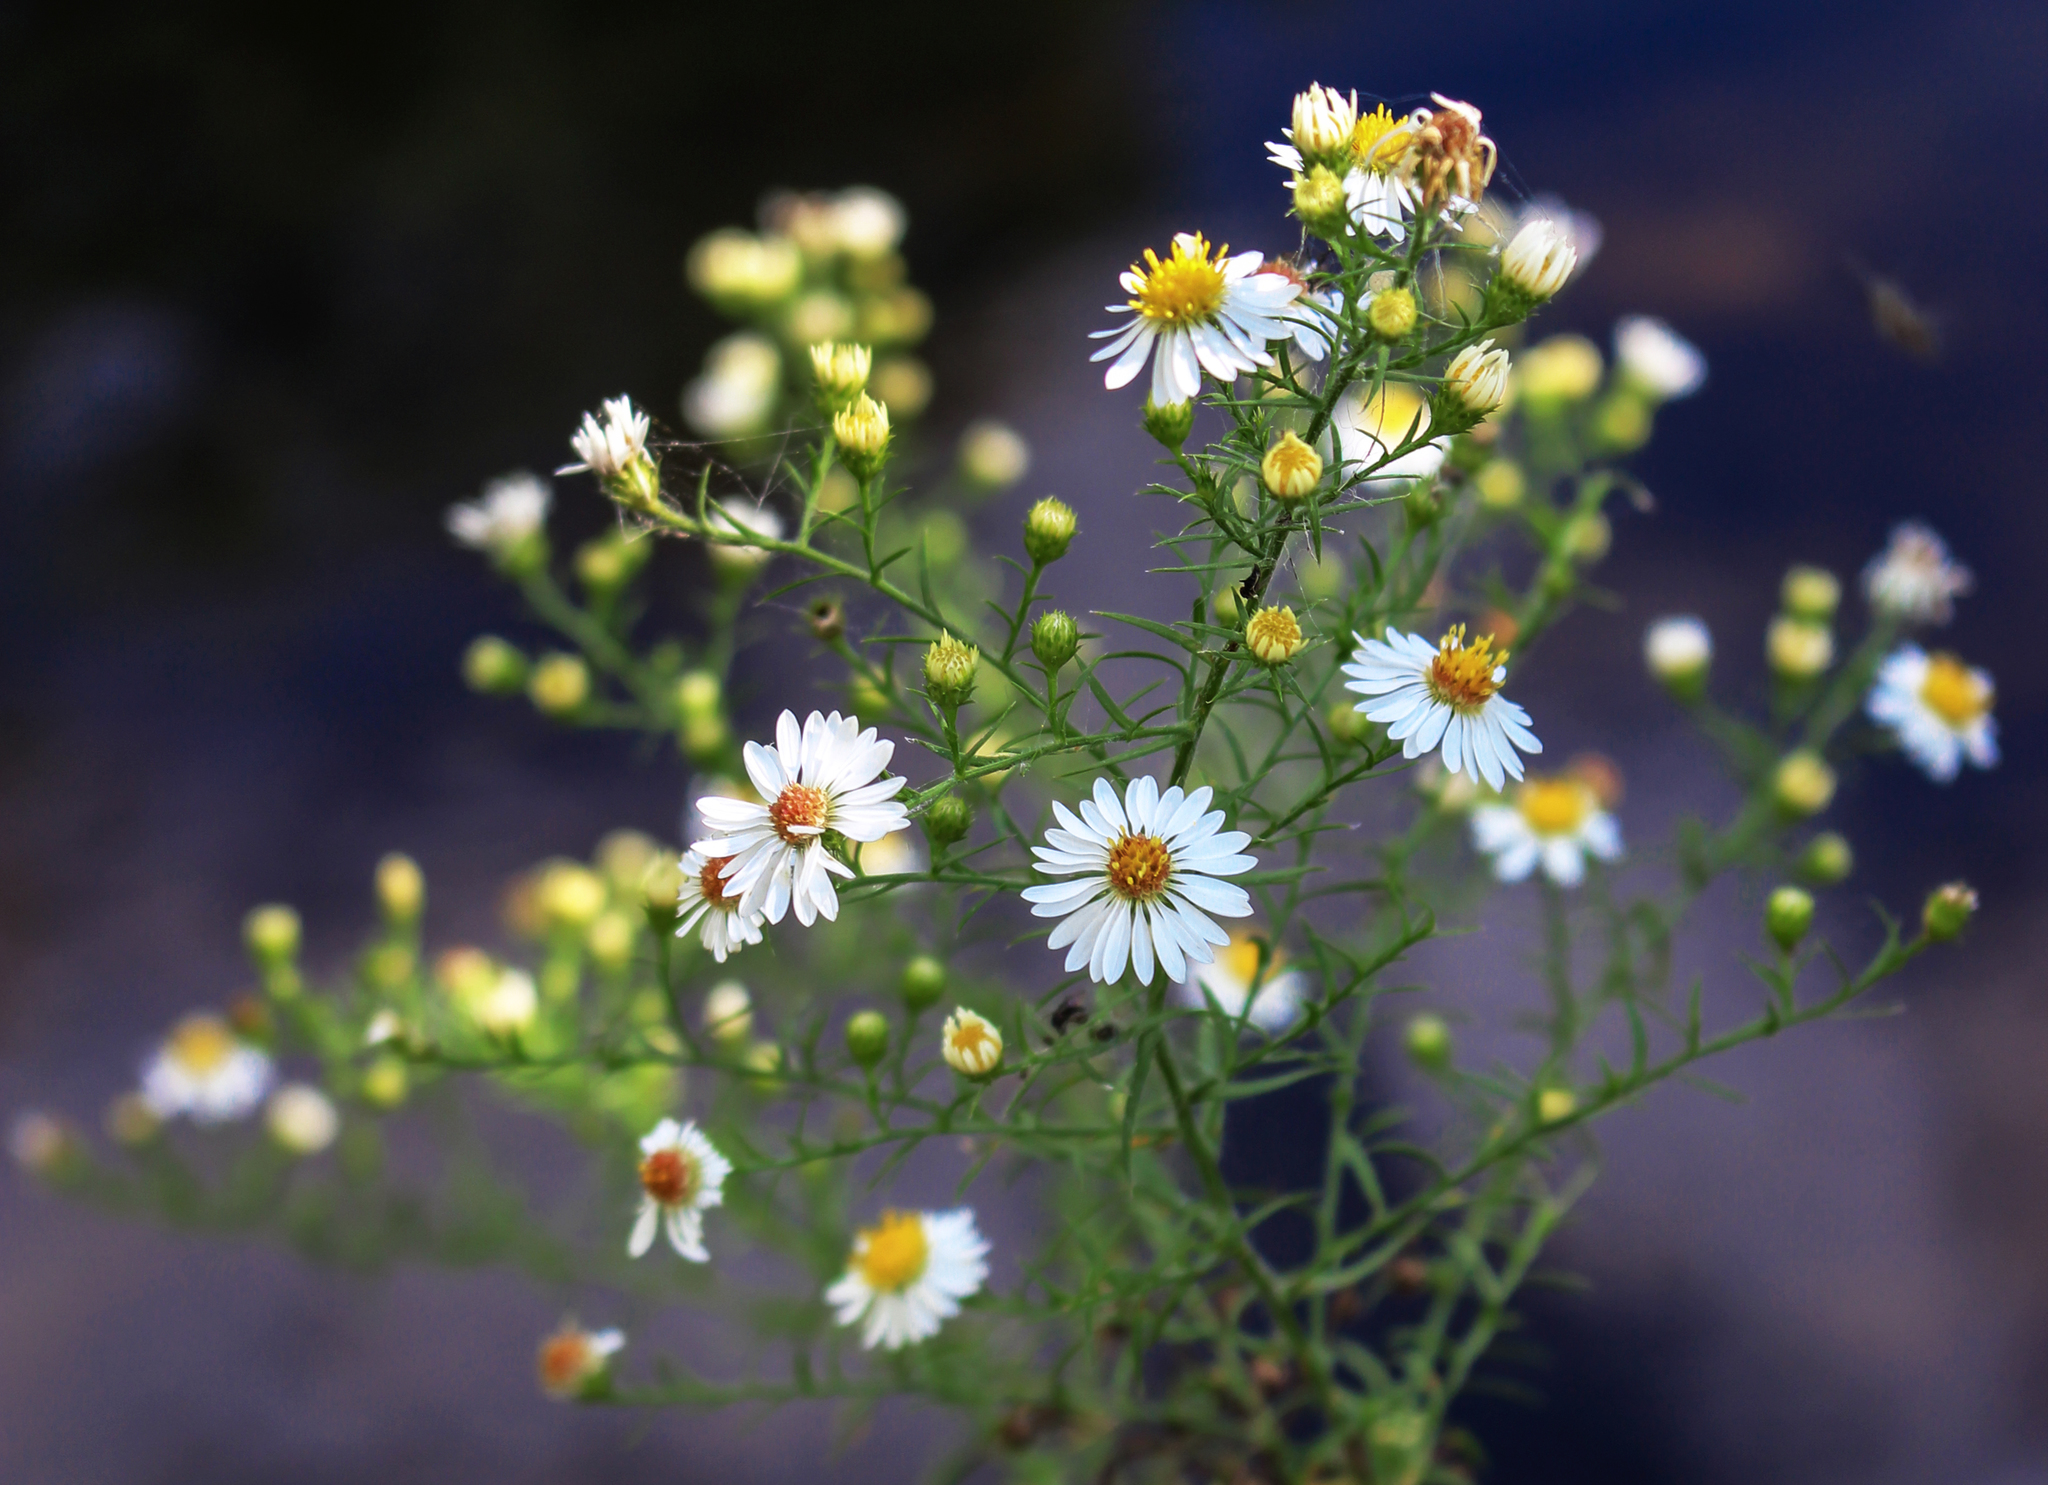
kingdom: Plantae
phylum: Tracheophyta
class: Magnoliopsida
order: Asterales
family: Asteraceae
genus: Symphyotrichum
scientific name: Symphyotrichum pilosum
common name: Awl aster
